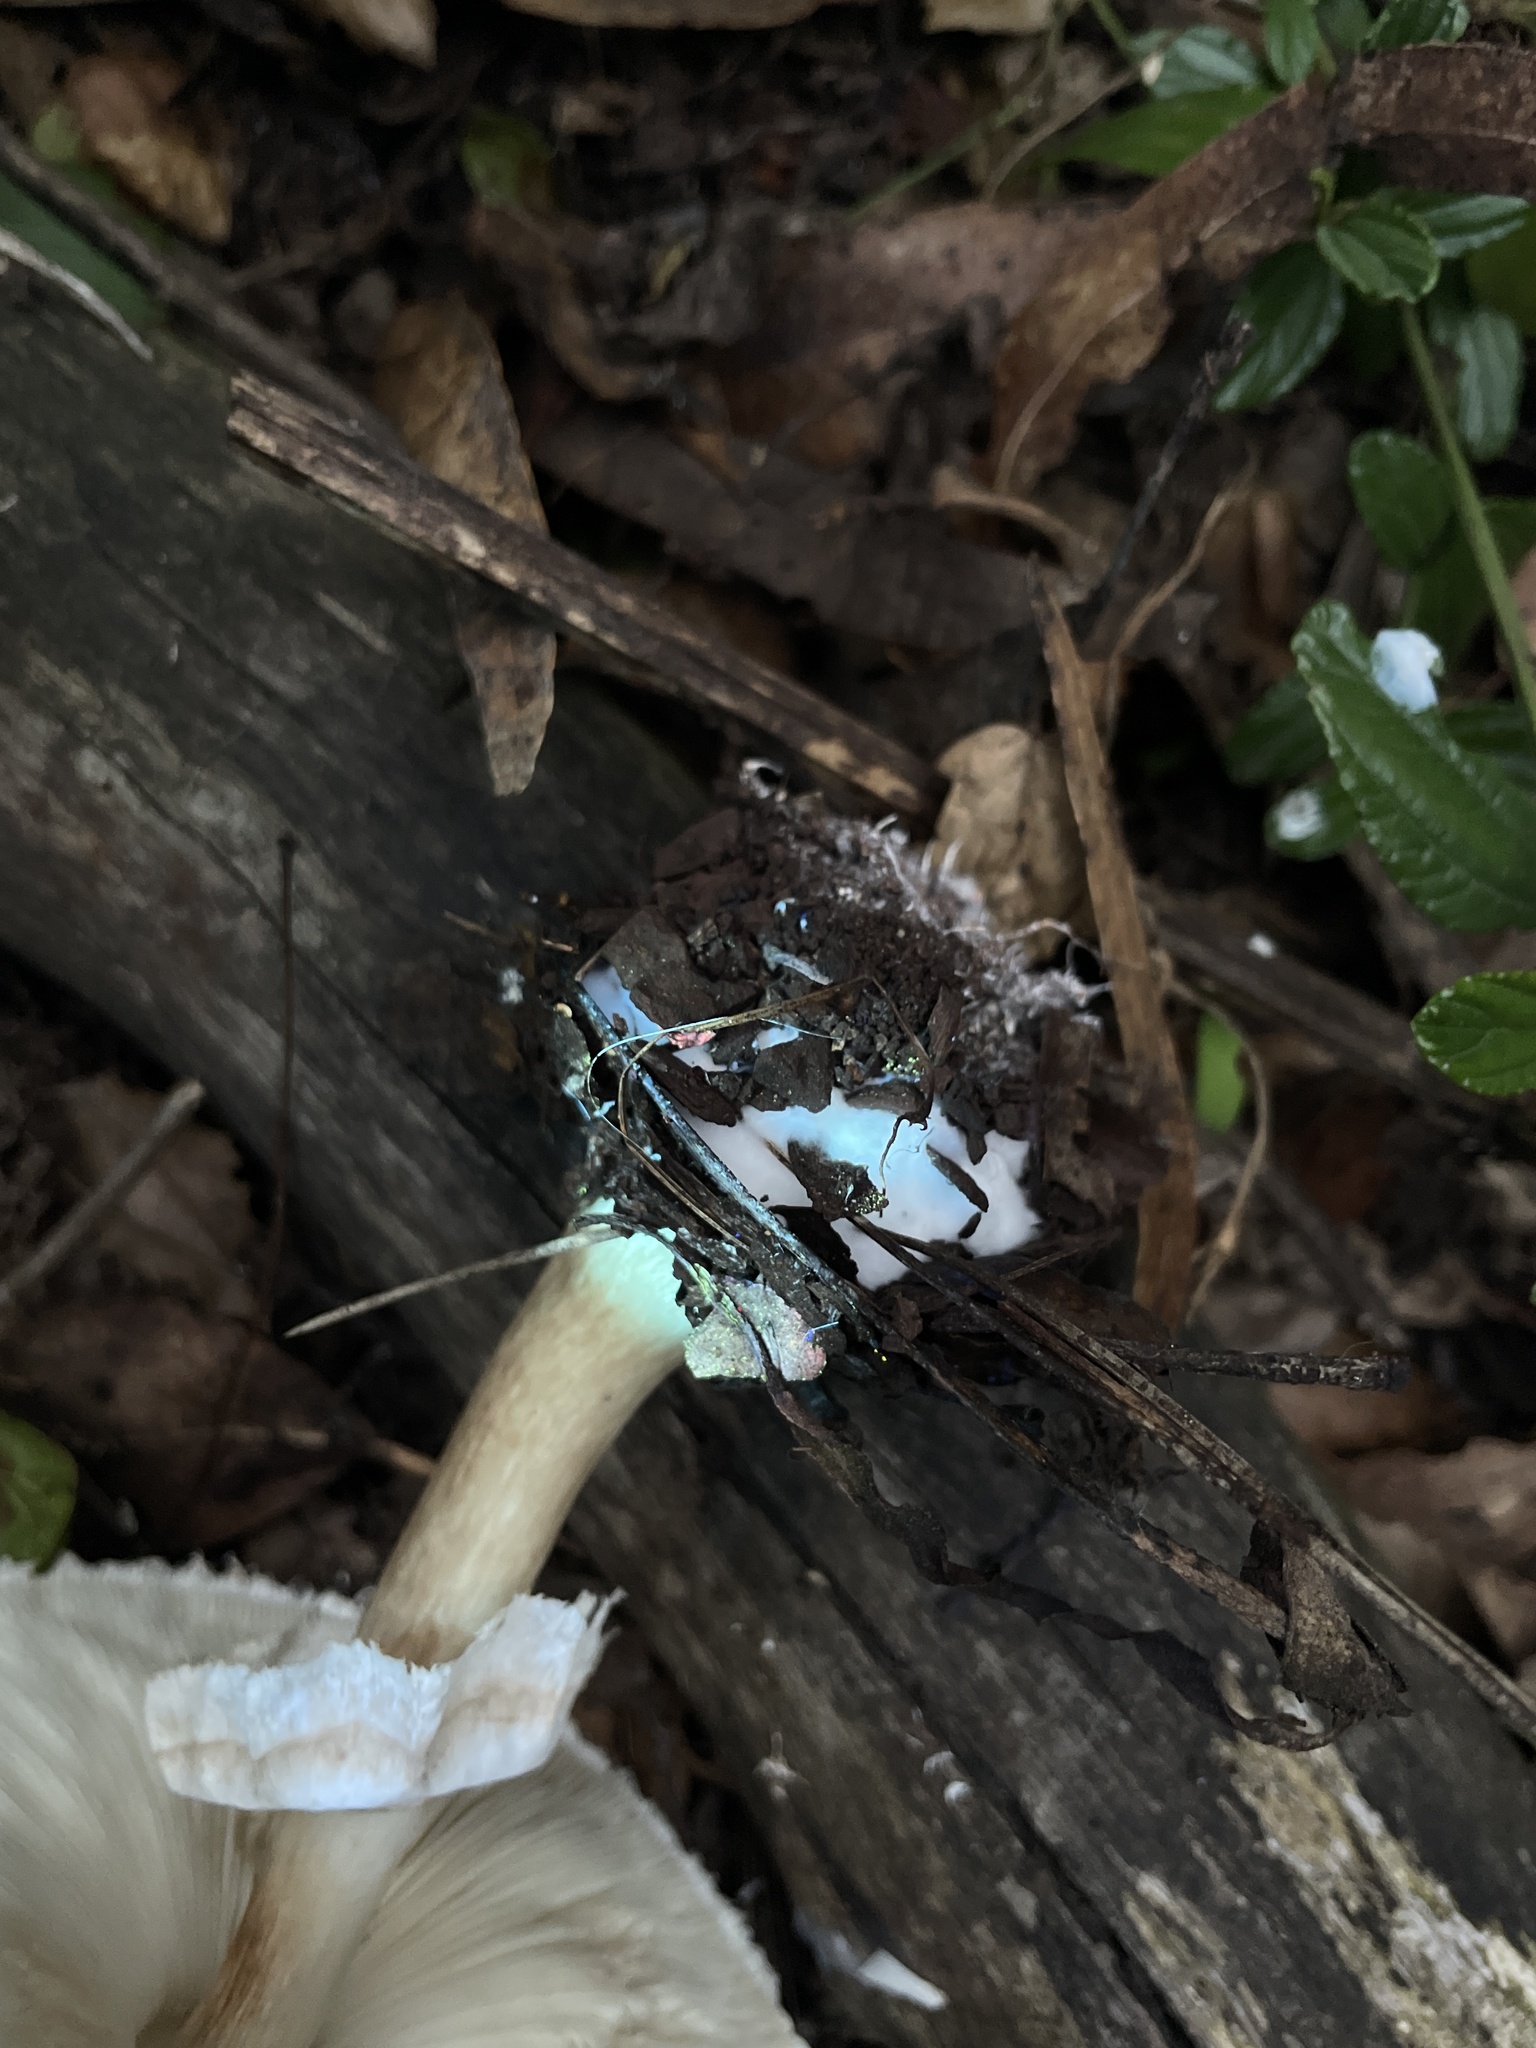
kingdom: Fungi
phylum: Basidiomycota
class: Agaricomycetes
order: Agaricales
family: Agaricaceae
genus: Chlorophyllum
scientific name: Chlorophyllum brunneum
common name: Brown parasol
